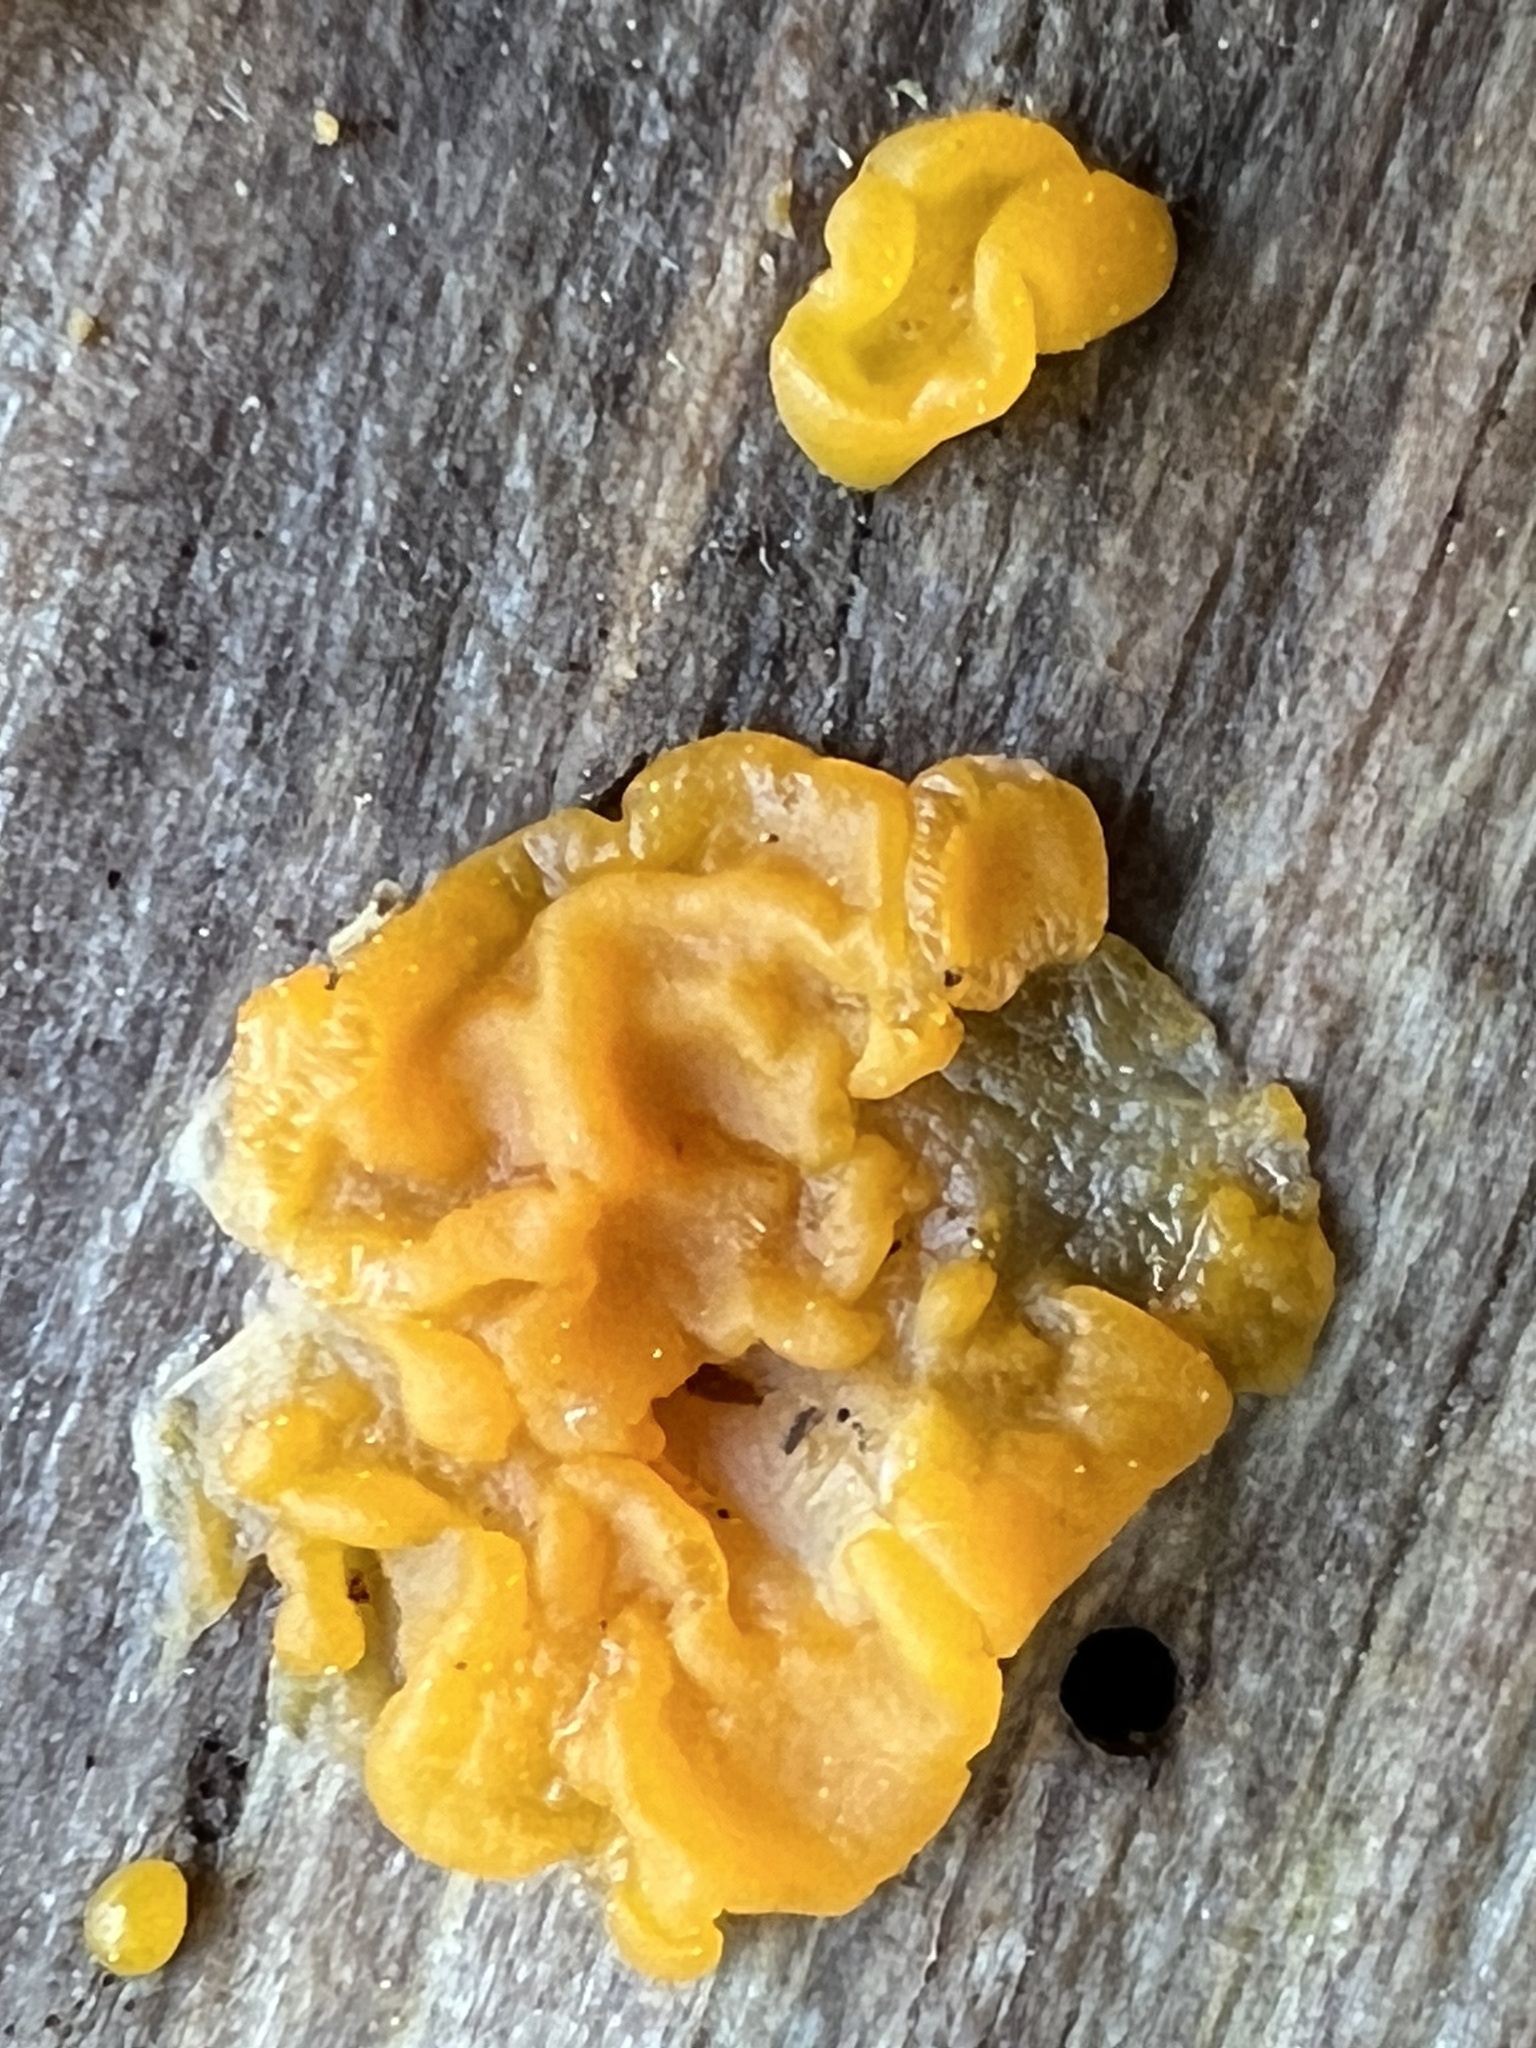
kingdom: Fungi
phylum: Basidiomycota
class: Tremellomycetes
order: Tremellales
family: Tremellaceae
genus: Tremella
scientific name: Tremella mesenterica
